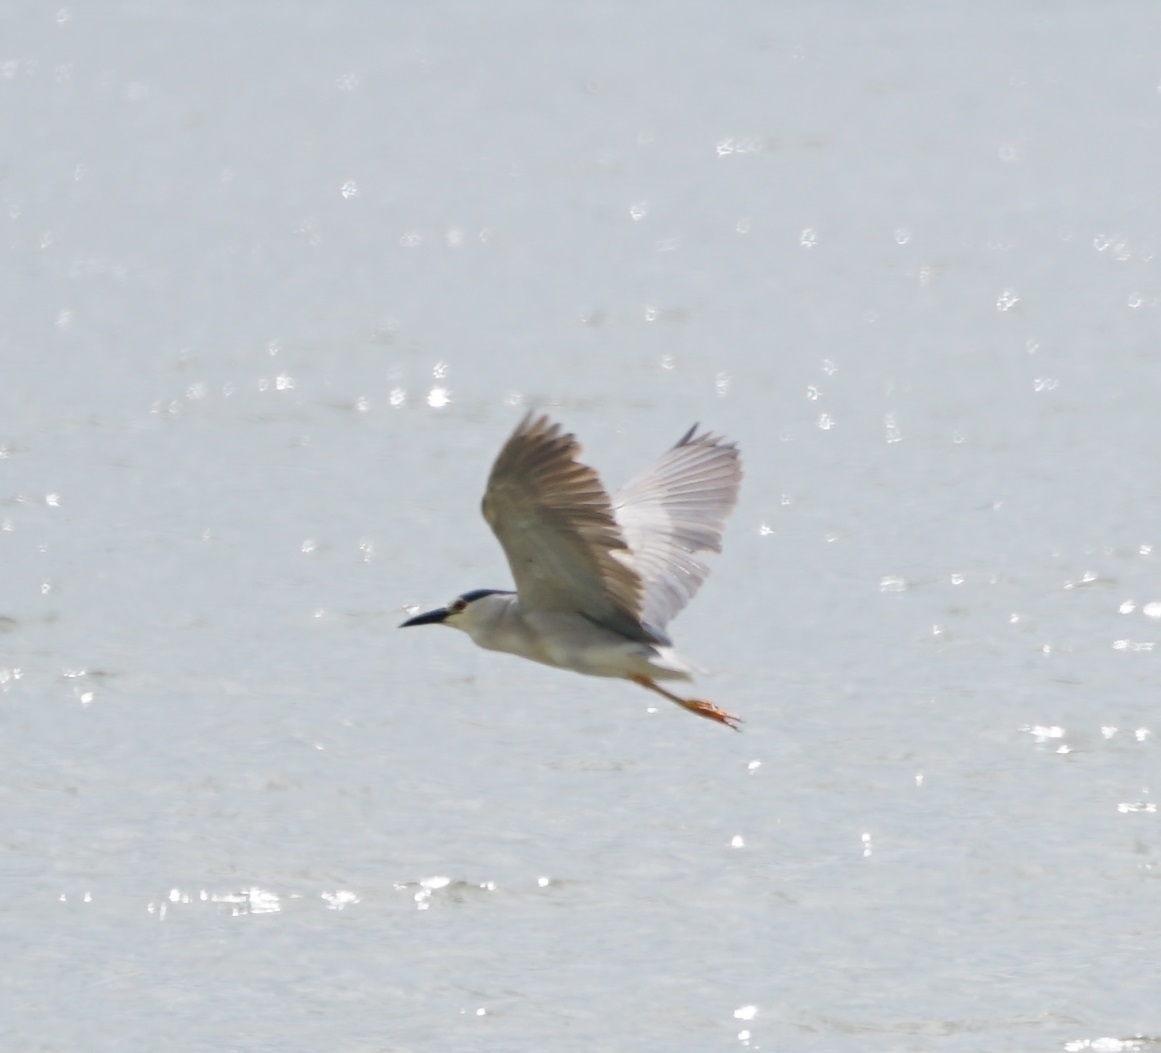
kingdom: Animalia
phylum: Chordata
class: Aves
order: Pelecaniformes
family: Ardeidae
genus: Nycticorax
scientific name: Nycticorax nycticorax
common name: Black-crowned night heron
